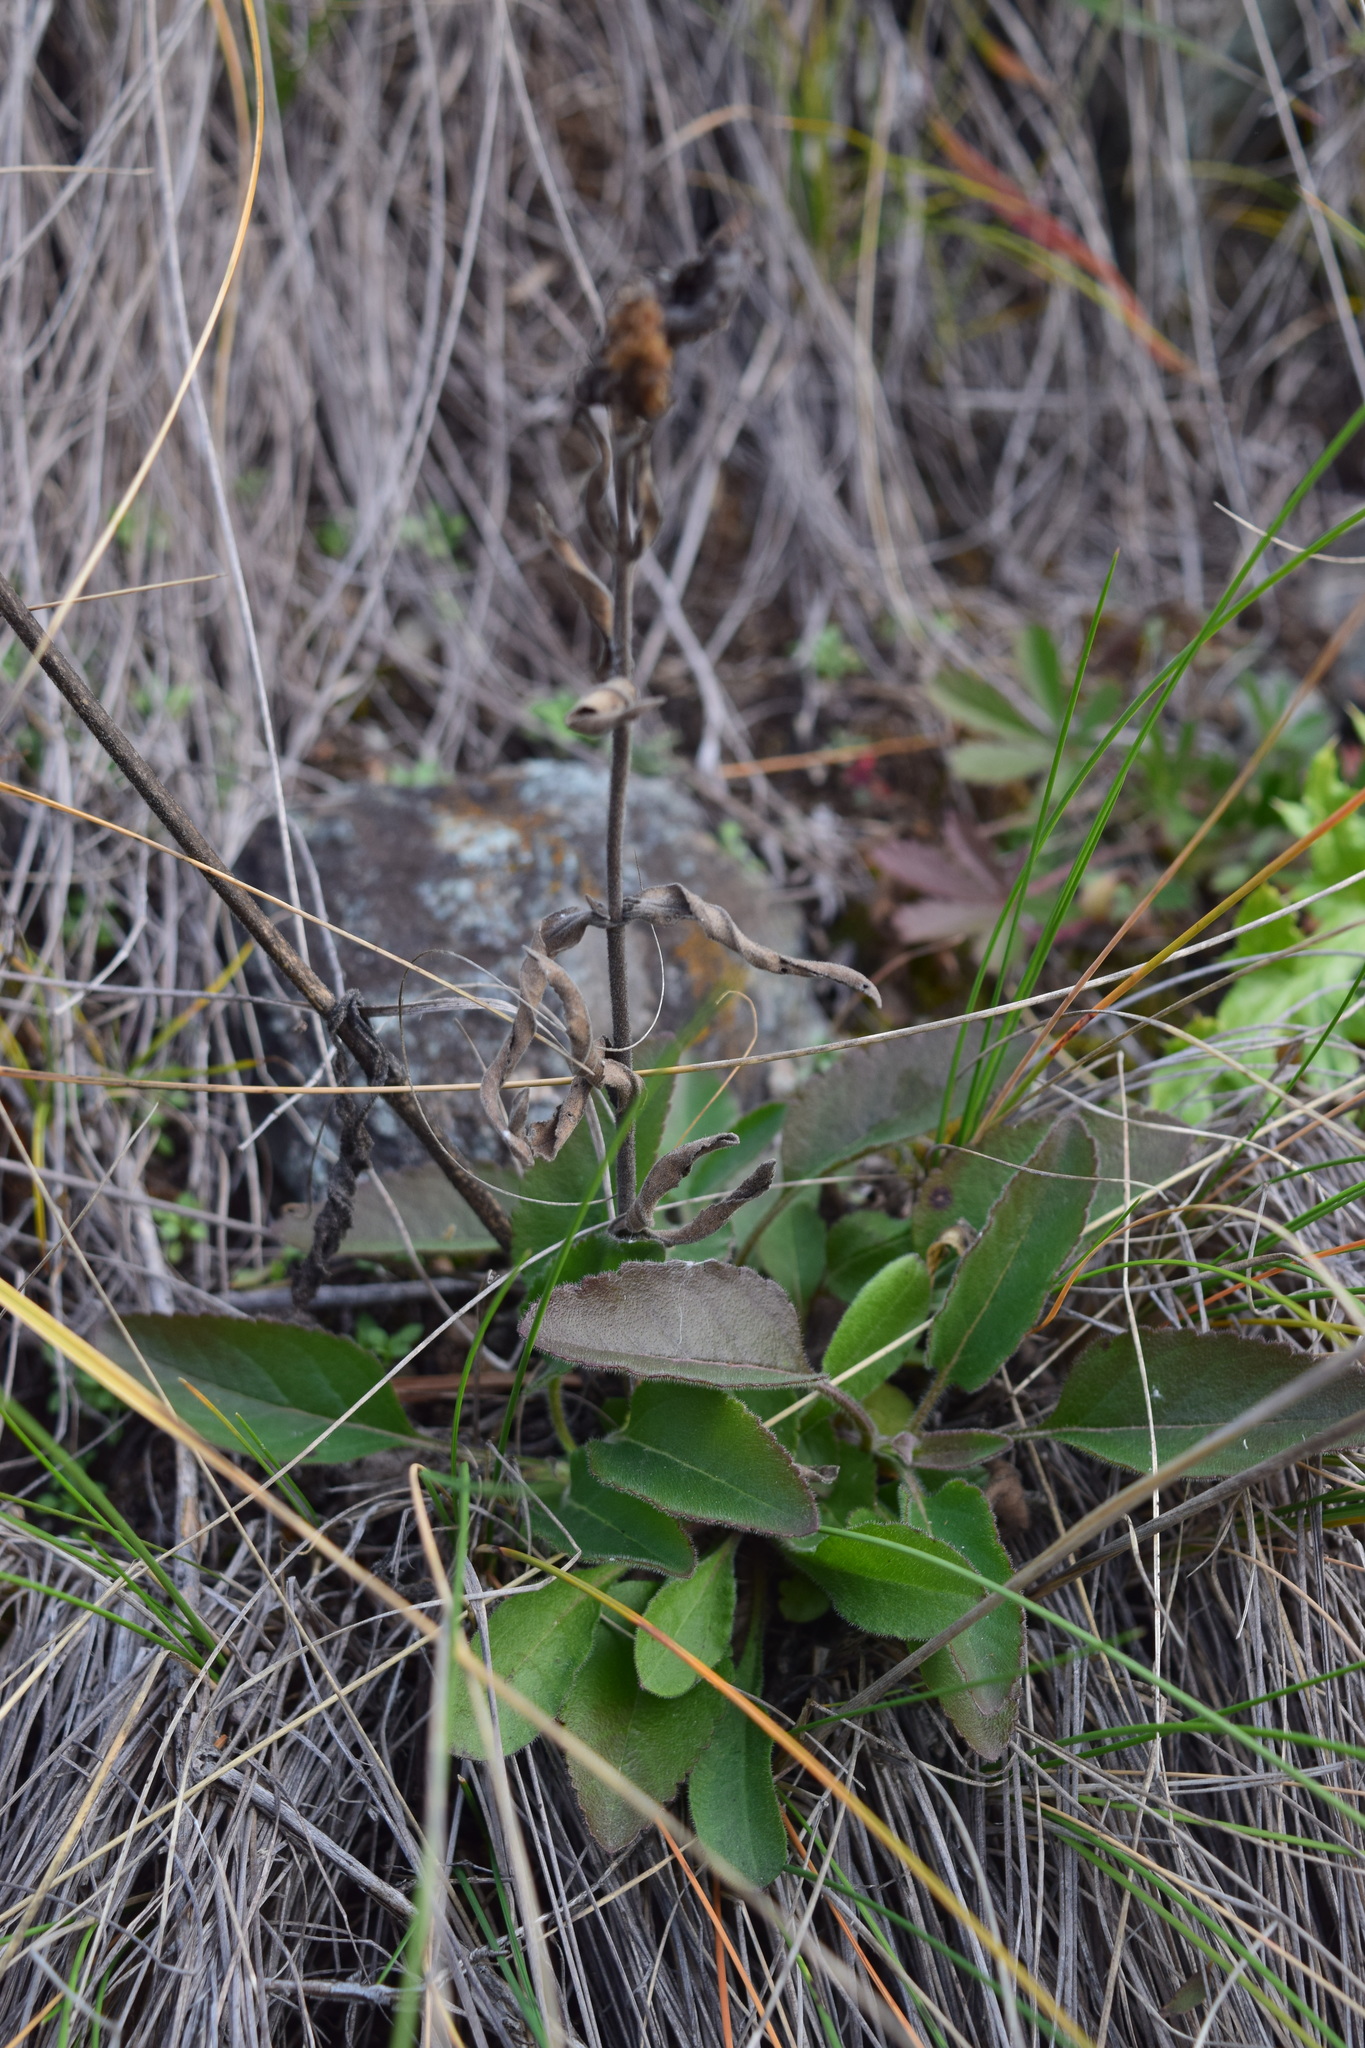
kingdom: Plantae
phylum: Tracheophyta
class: Magnoliopsida
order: Lamiales
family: Plantaginaceae
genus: Veronica
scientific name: Veronica spicata
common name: Spiked speedwell
